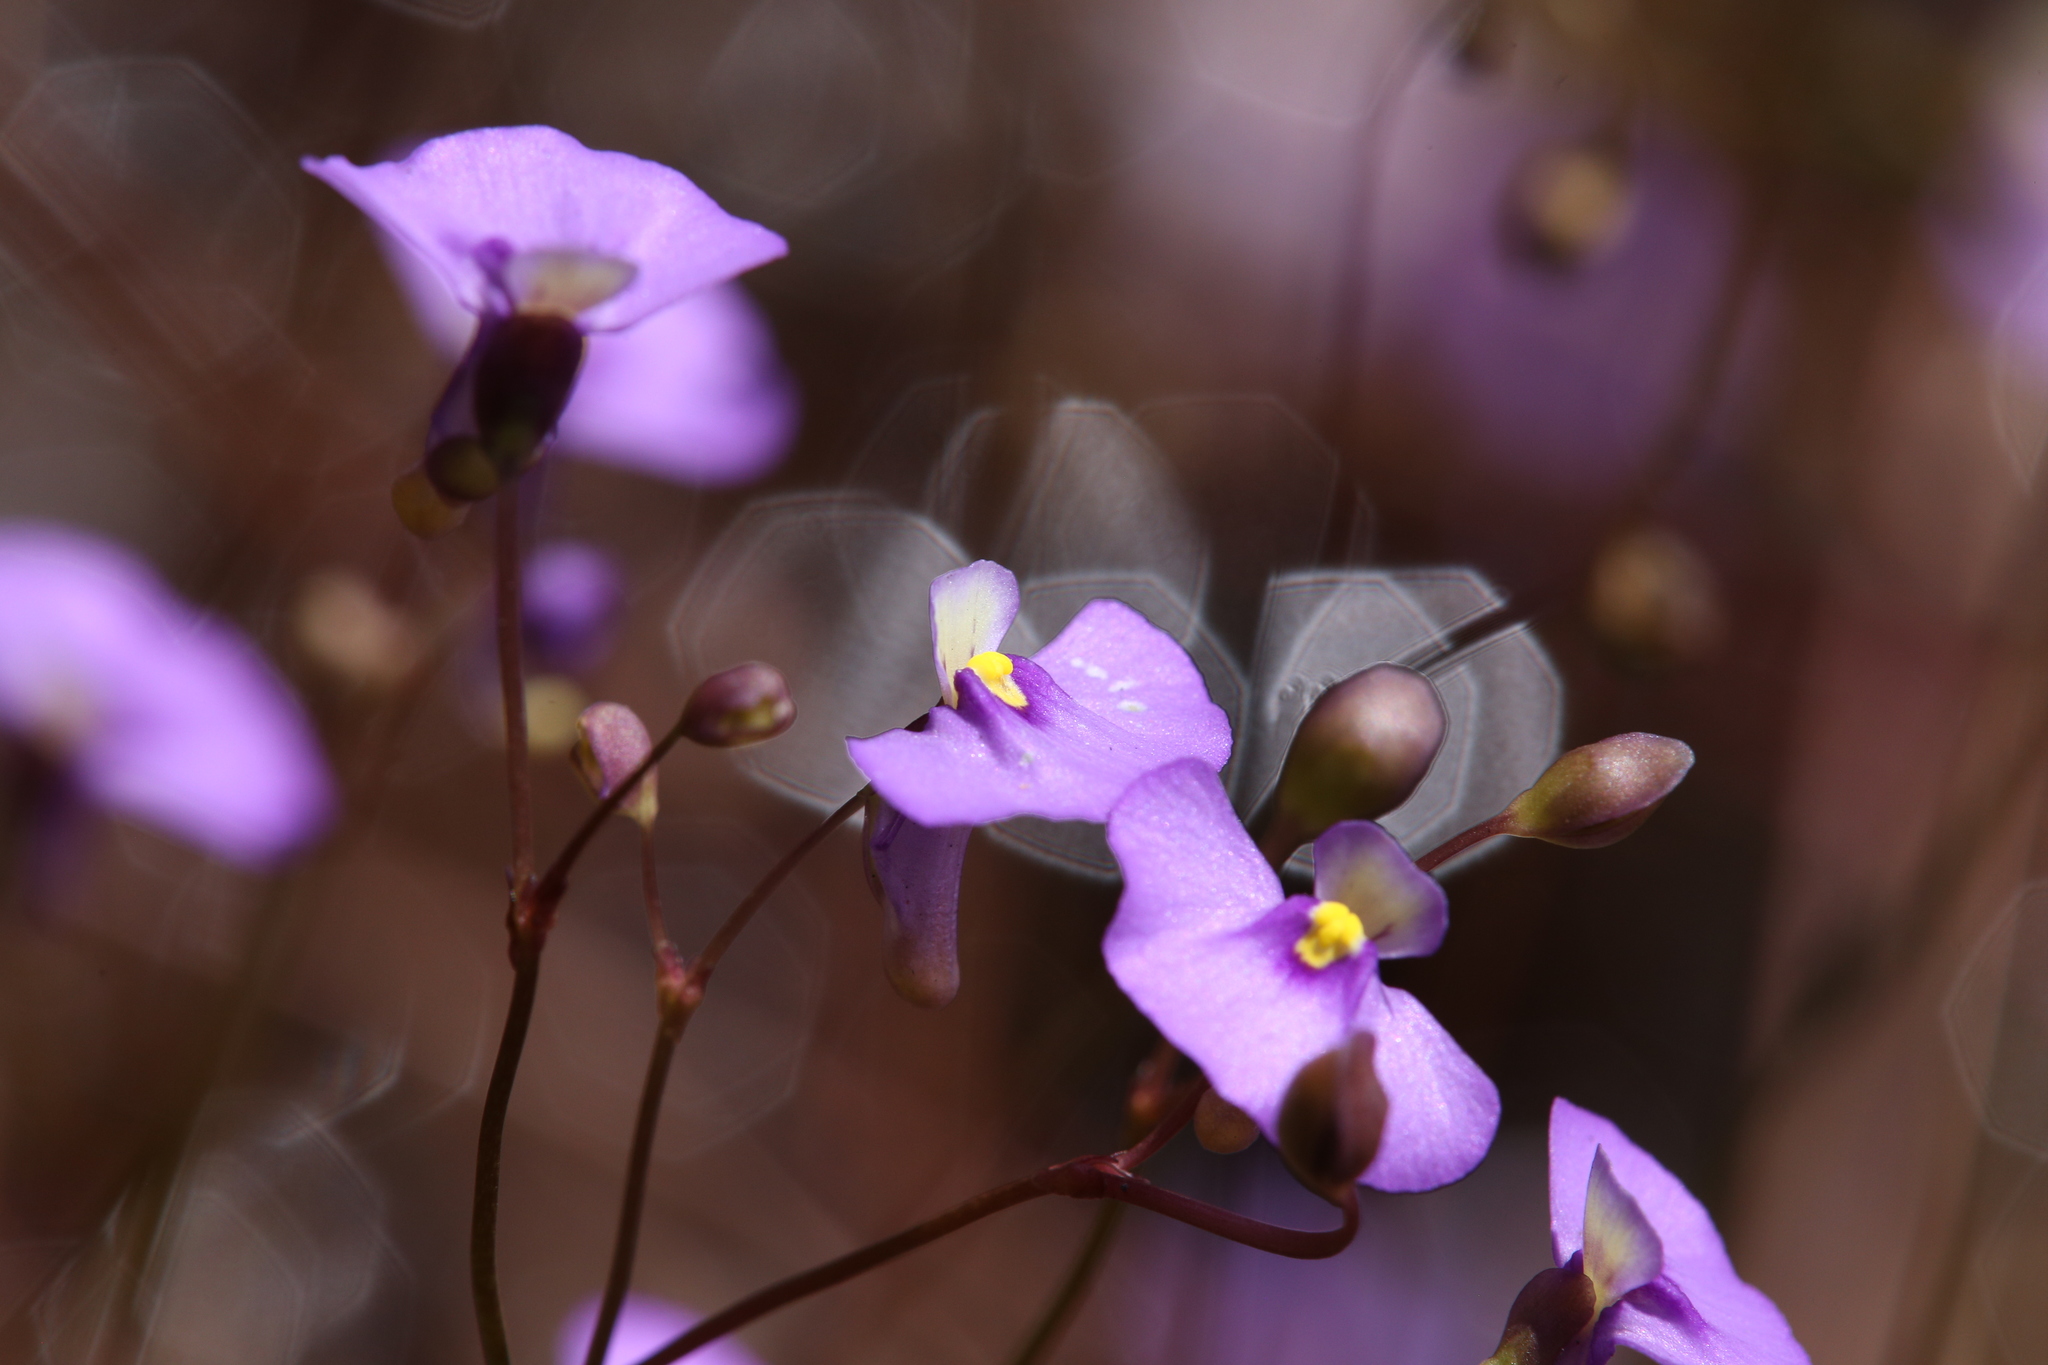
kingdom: Plantae
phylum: Tracheophyta
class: Magnoliopsida
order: Lamiales
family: Lentibulariaceae
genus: Utricularia
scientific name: Utricularia paulineae
